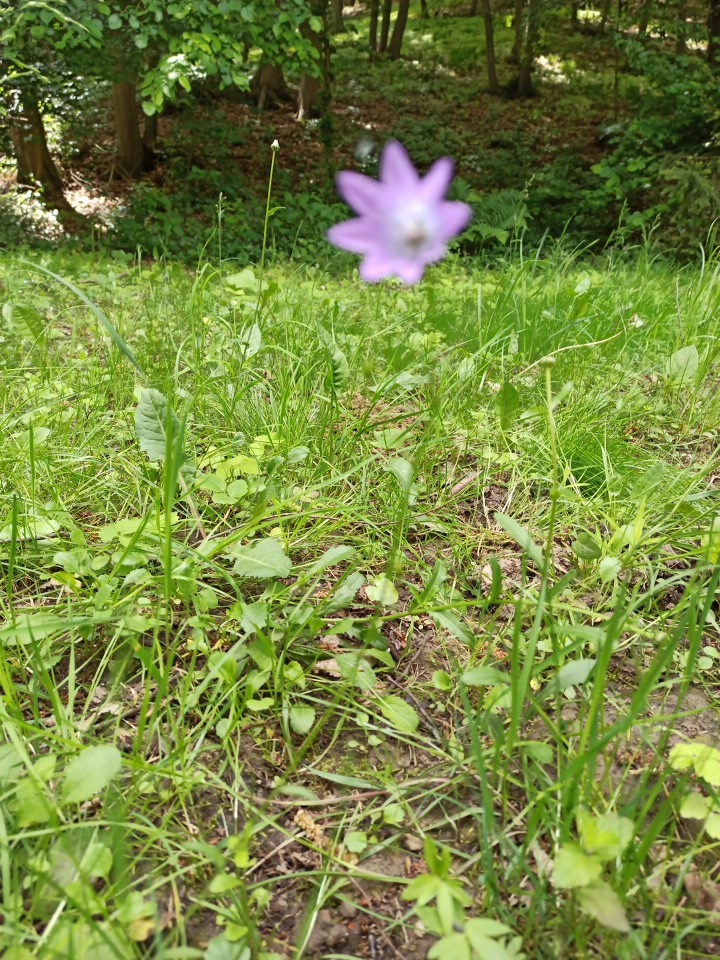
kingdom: Plantae
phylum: Tracheophyta
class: Magnoliopsida
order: Asterales
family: Campanulaceae
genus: Campanula
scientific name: Campanula patula
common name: Spreading bellflower
